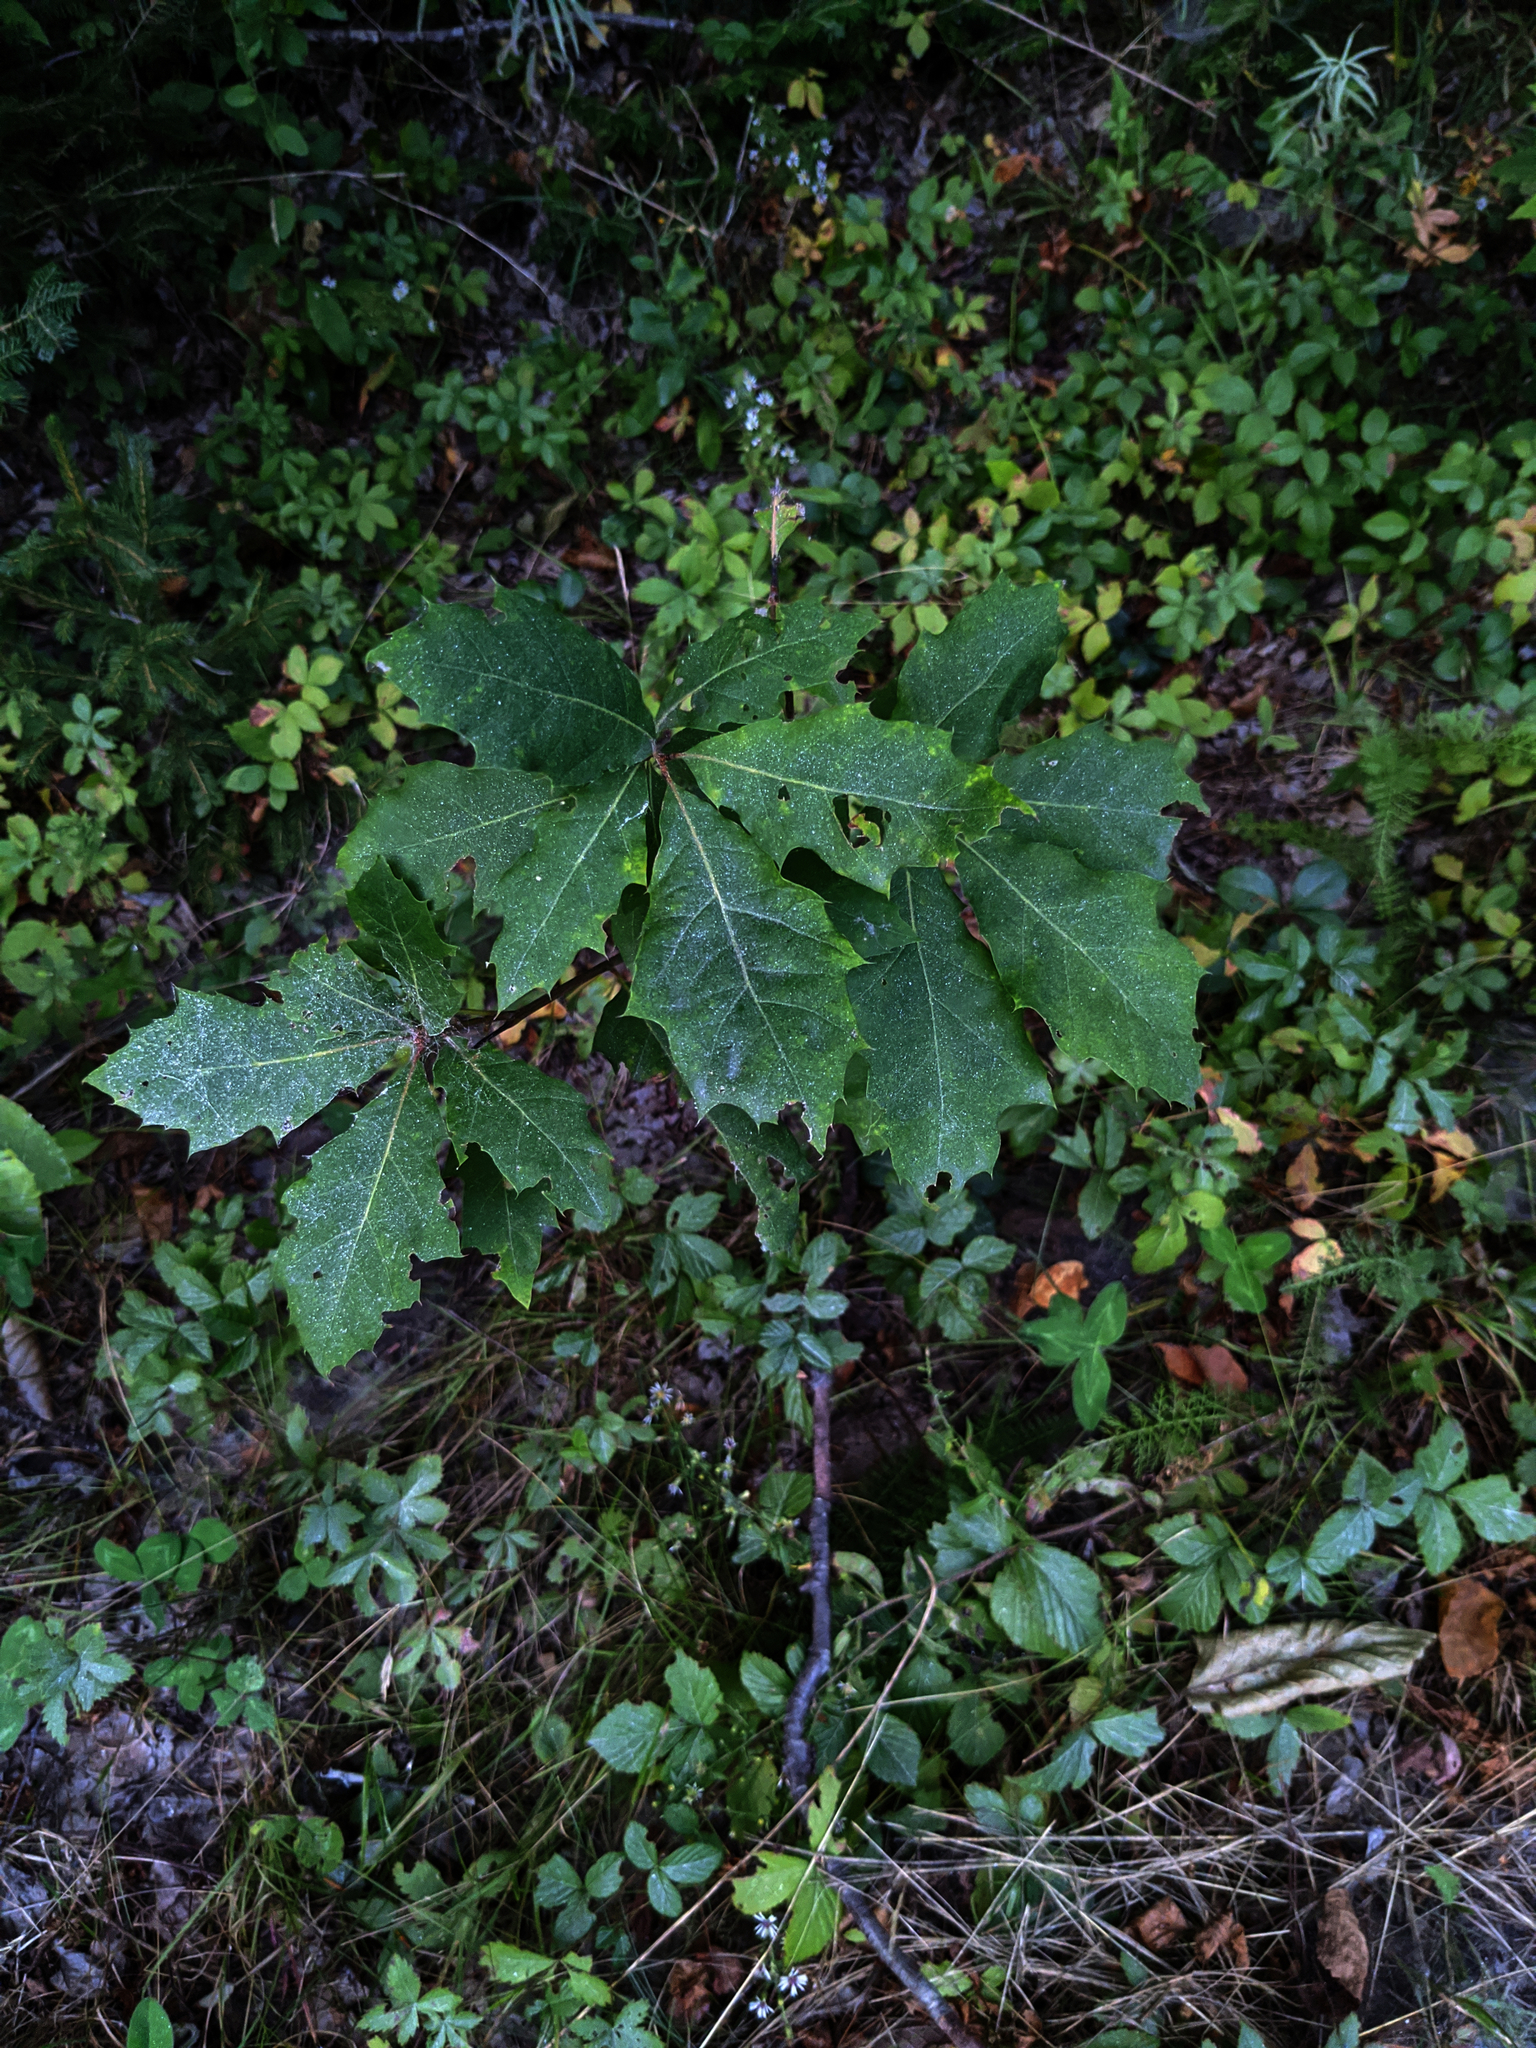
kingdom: Plantae
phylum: Tracheophyta
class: Magnoliopsida
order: Fagales
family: Fagaceae
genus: Quercus
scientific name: Quercus rubra
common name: Red oak
